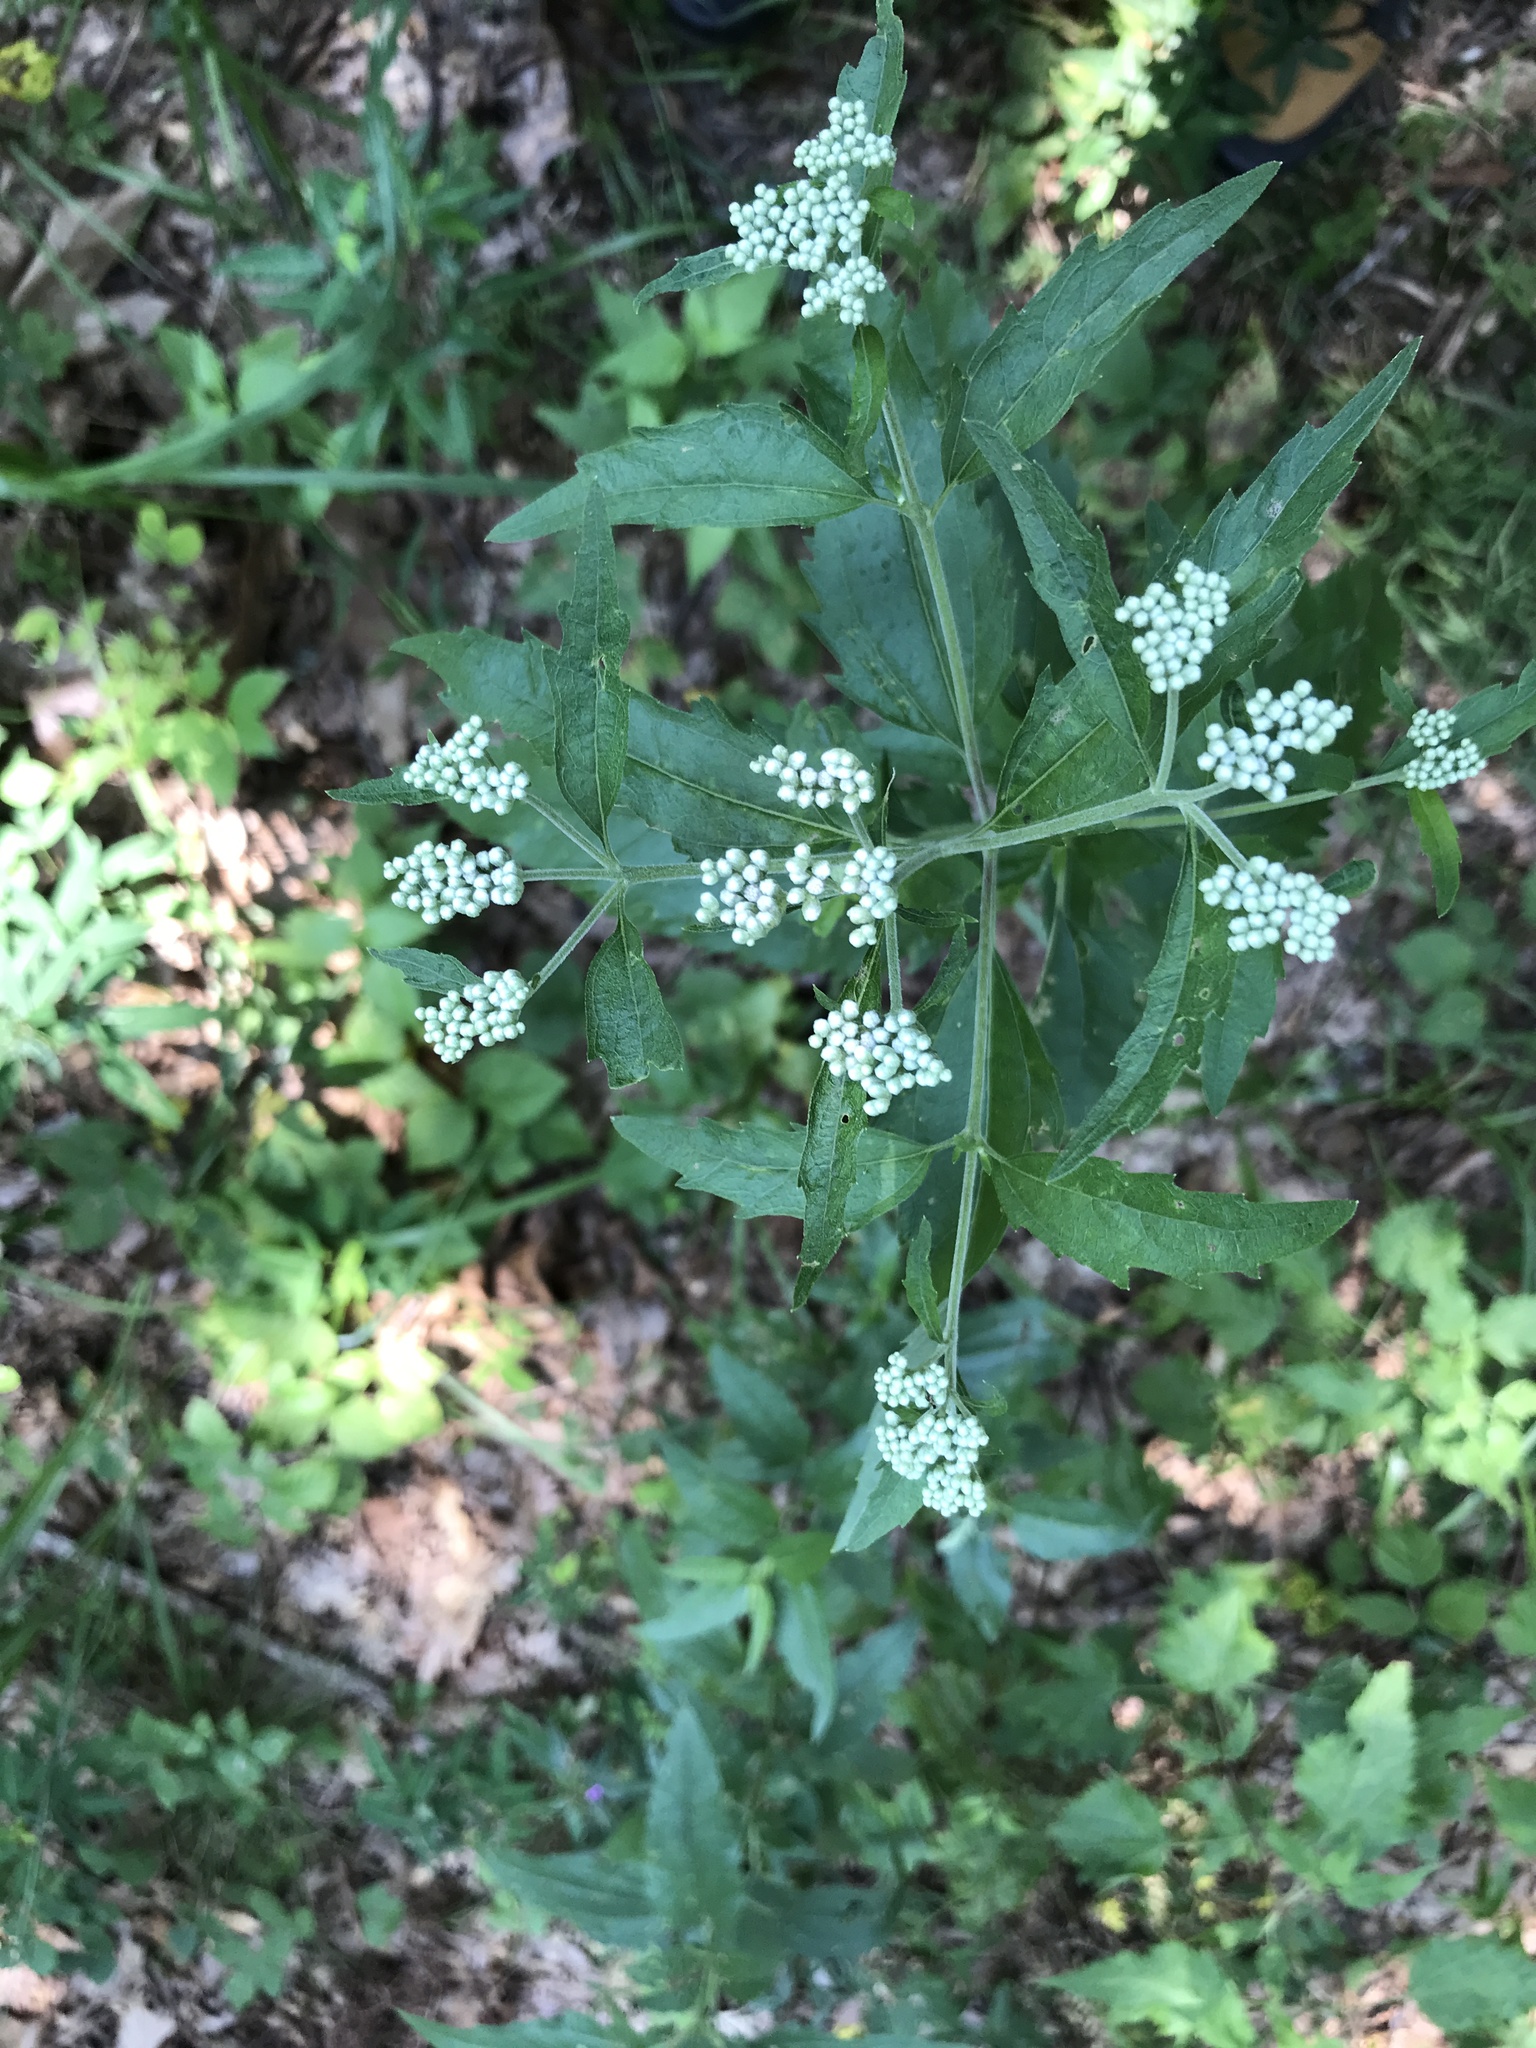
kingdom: Plantae
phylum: Tracheophyta
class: Magnoliopsida
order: Asterales
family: Asteraceae
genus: Eupatorium
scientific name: Eupatorium serotinum
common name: Late boneset
